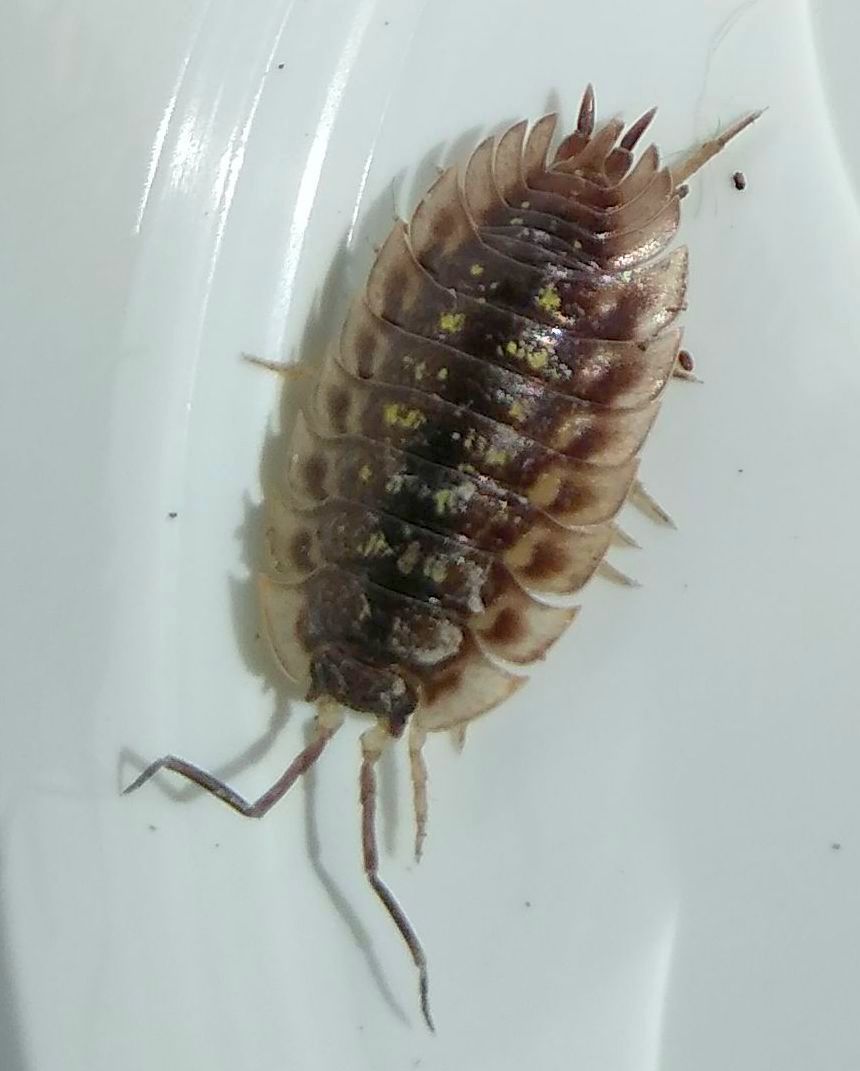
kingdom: Animalia
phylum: Arthropoda
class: Malacostraca
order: Isopoda
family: Oniscidae
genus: Oniscus
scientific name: Oniscus asellus
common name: Common shiny woodlouse
